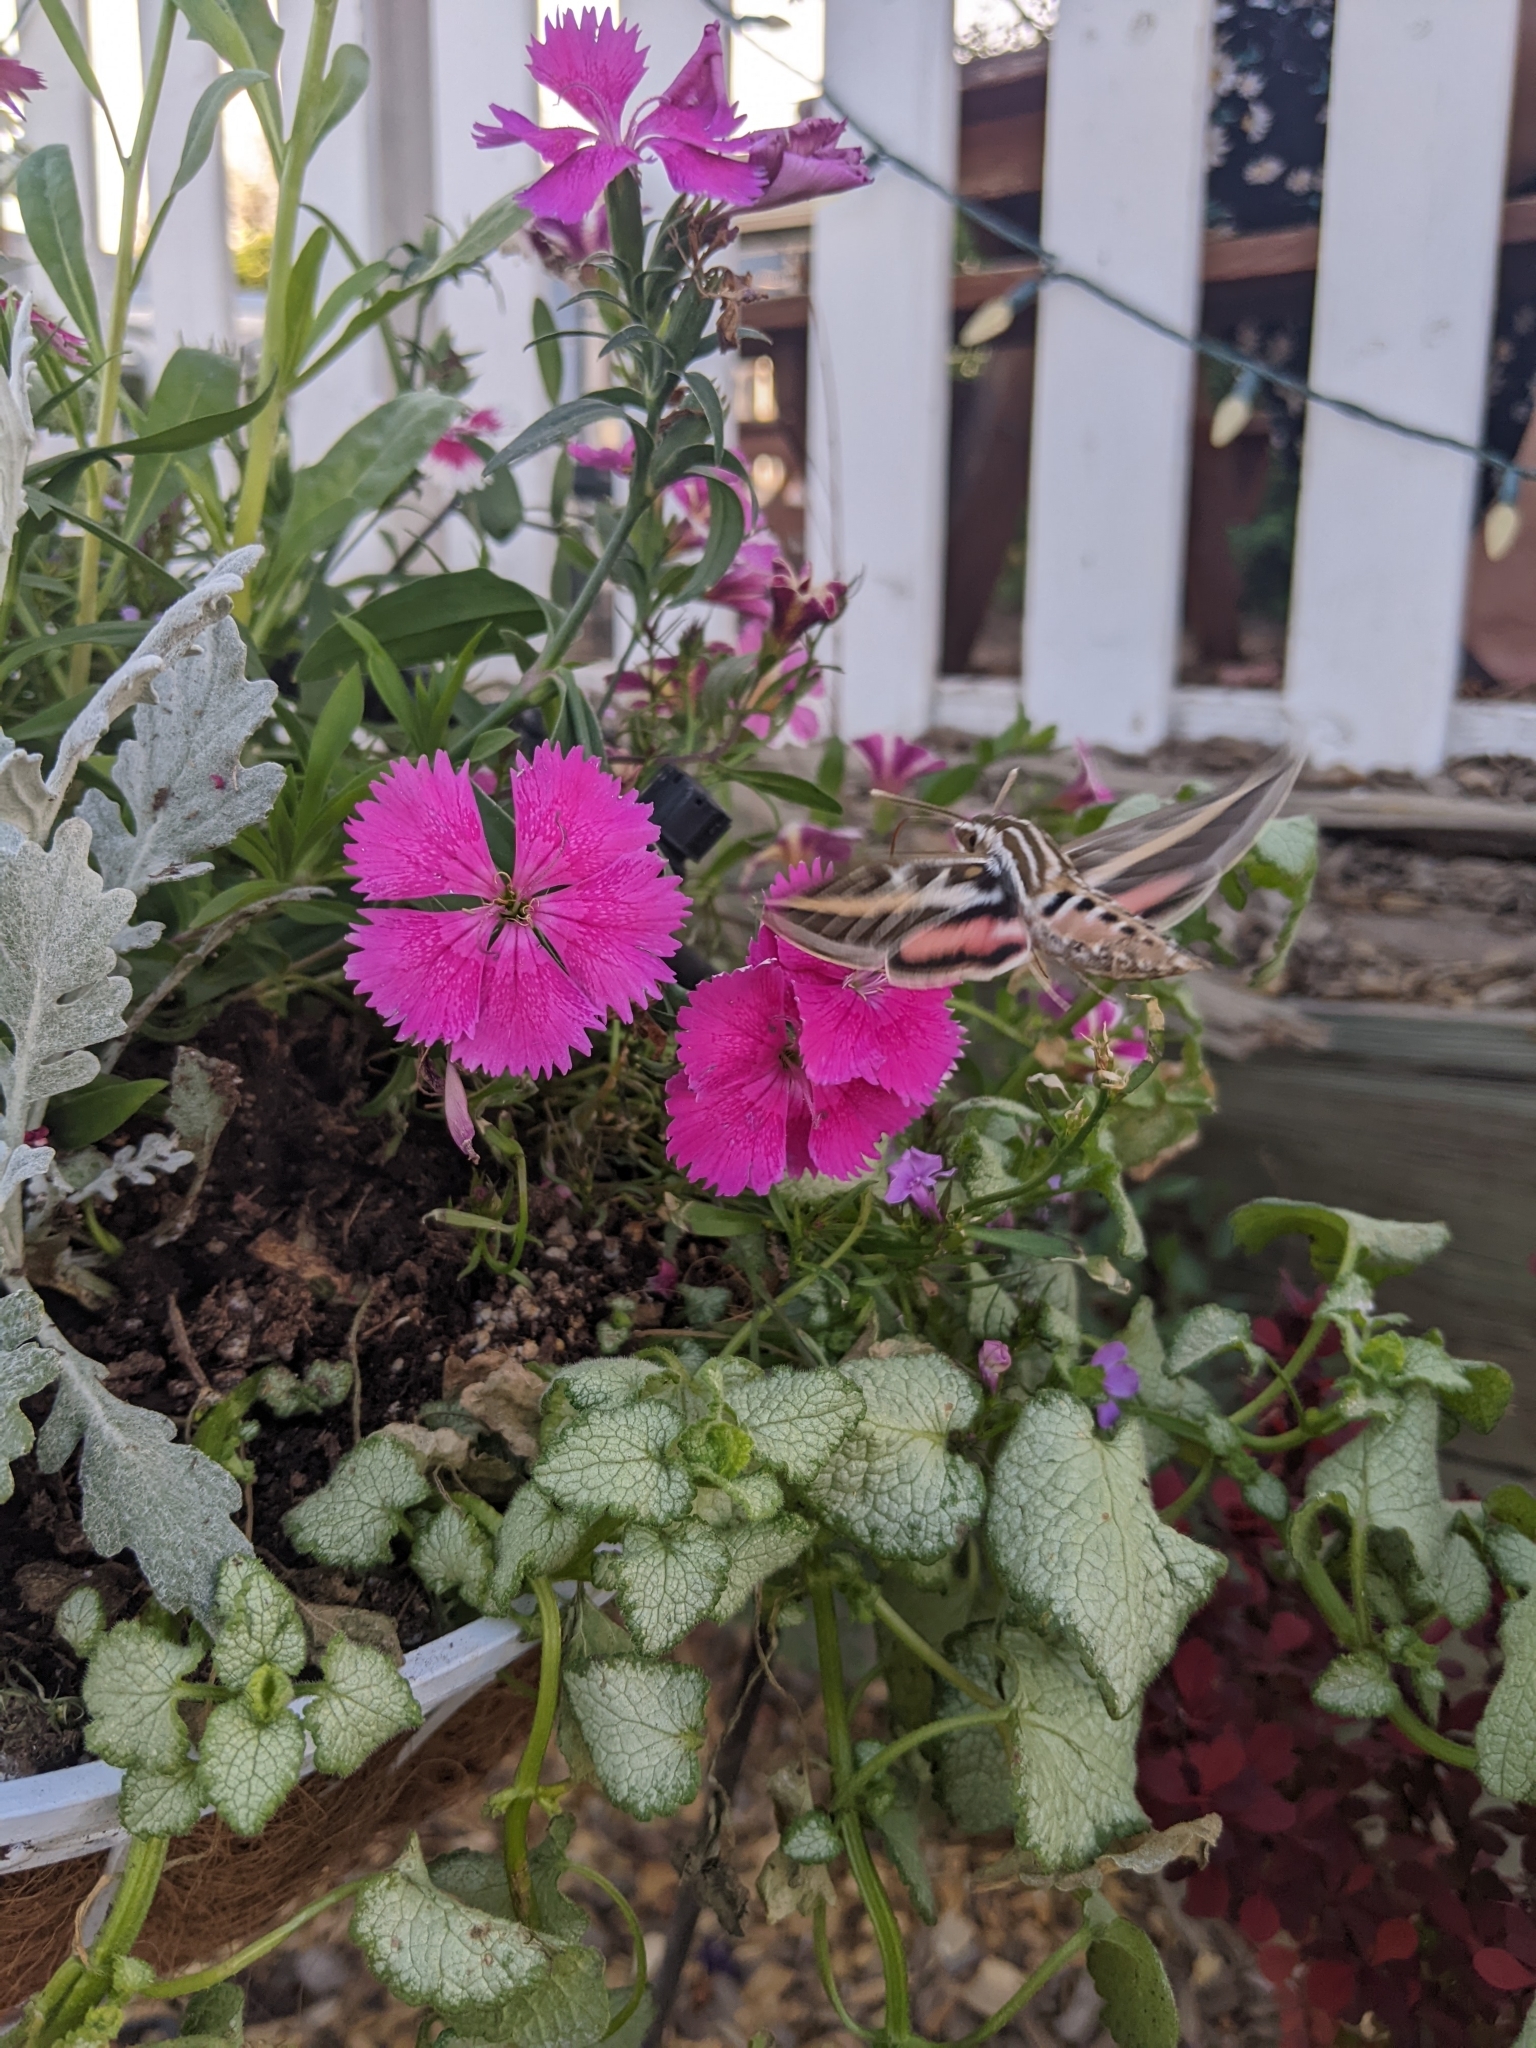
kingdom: Animalia
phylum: Arthropoda
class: Insecta
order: Lepidoptera
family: Sphingidae
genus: Hyles
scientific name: Hyles lineata
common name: White-lined sphinx
